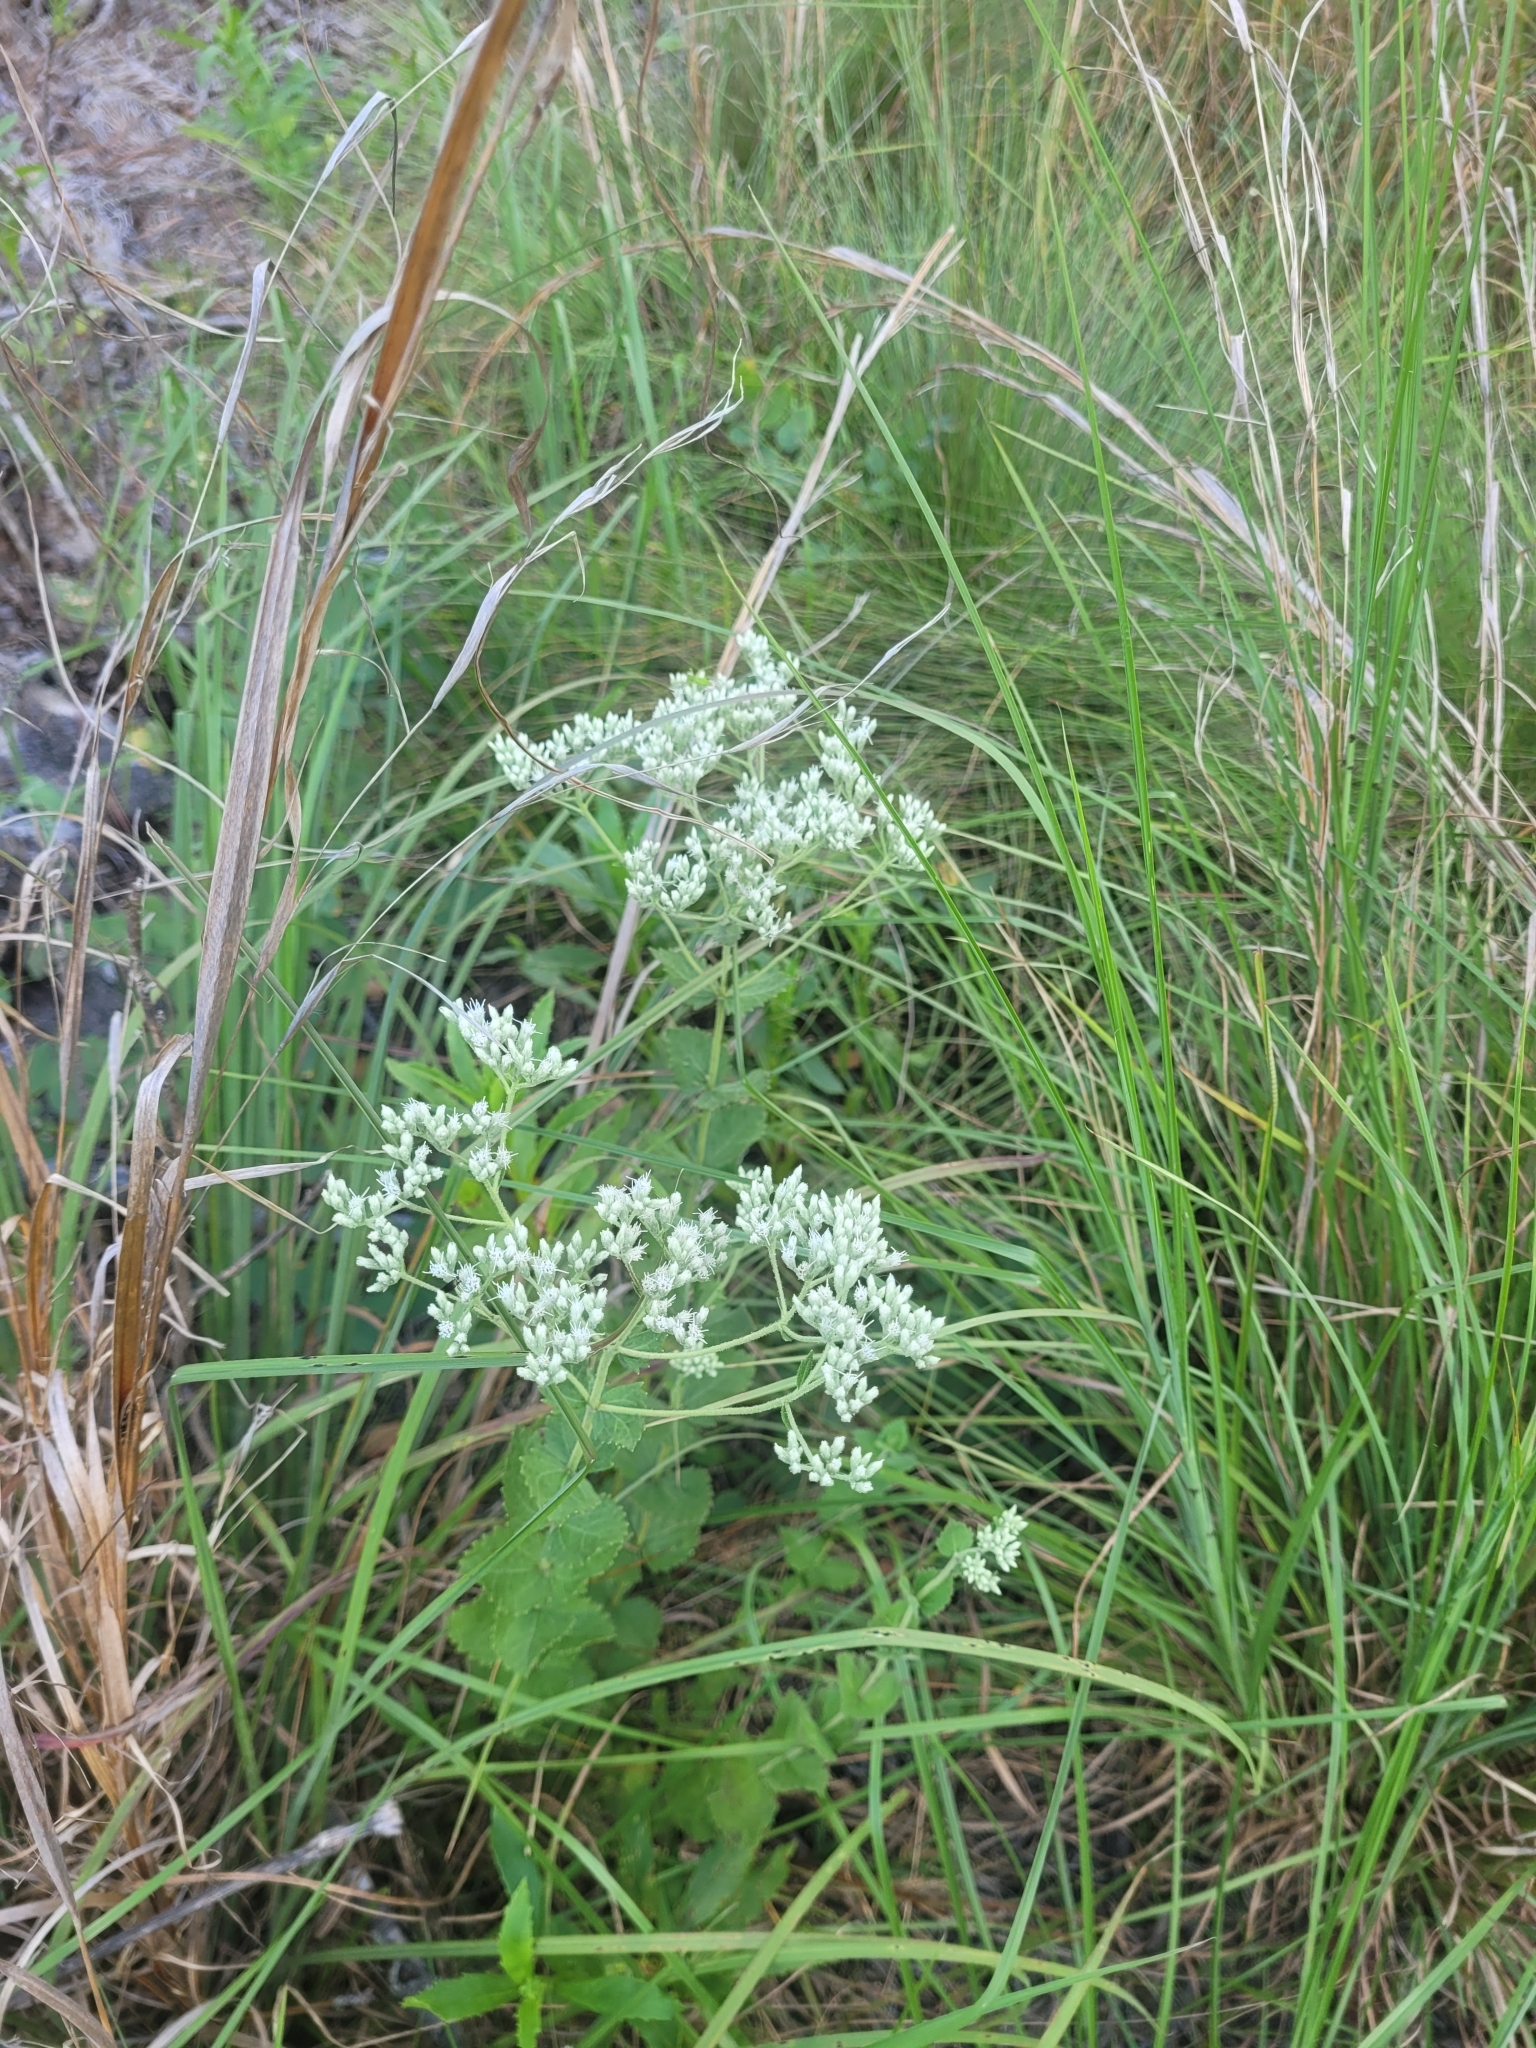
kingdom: Plantae
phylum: Tracheophyta
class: Magnoliopsida
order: Asterales
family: Asteraceae
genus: Eupatorium
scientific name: Eupatorium rotundifolium
